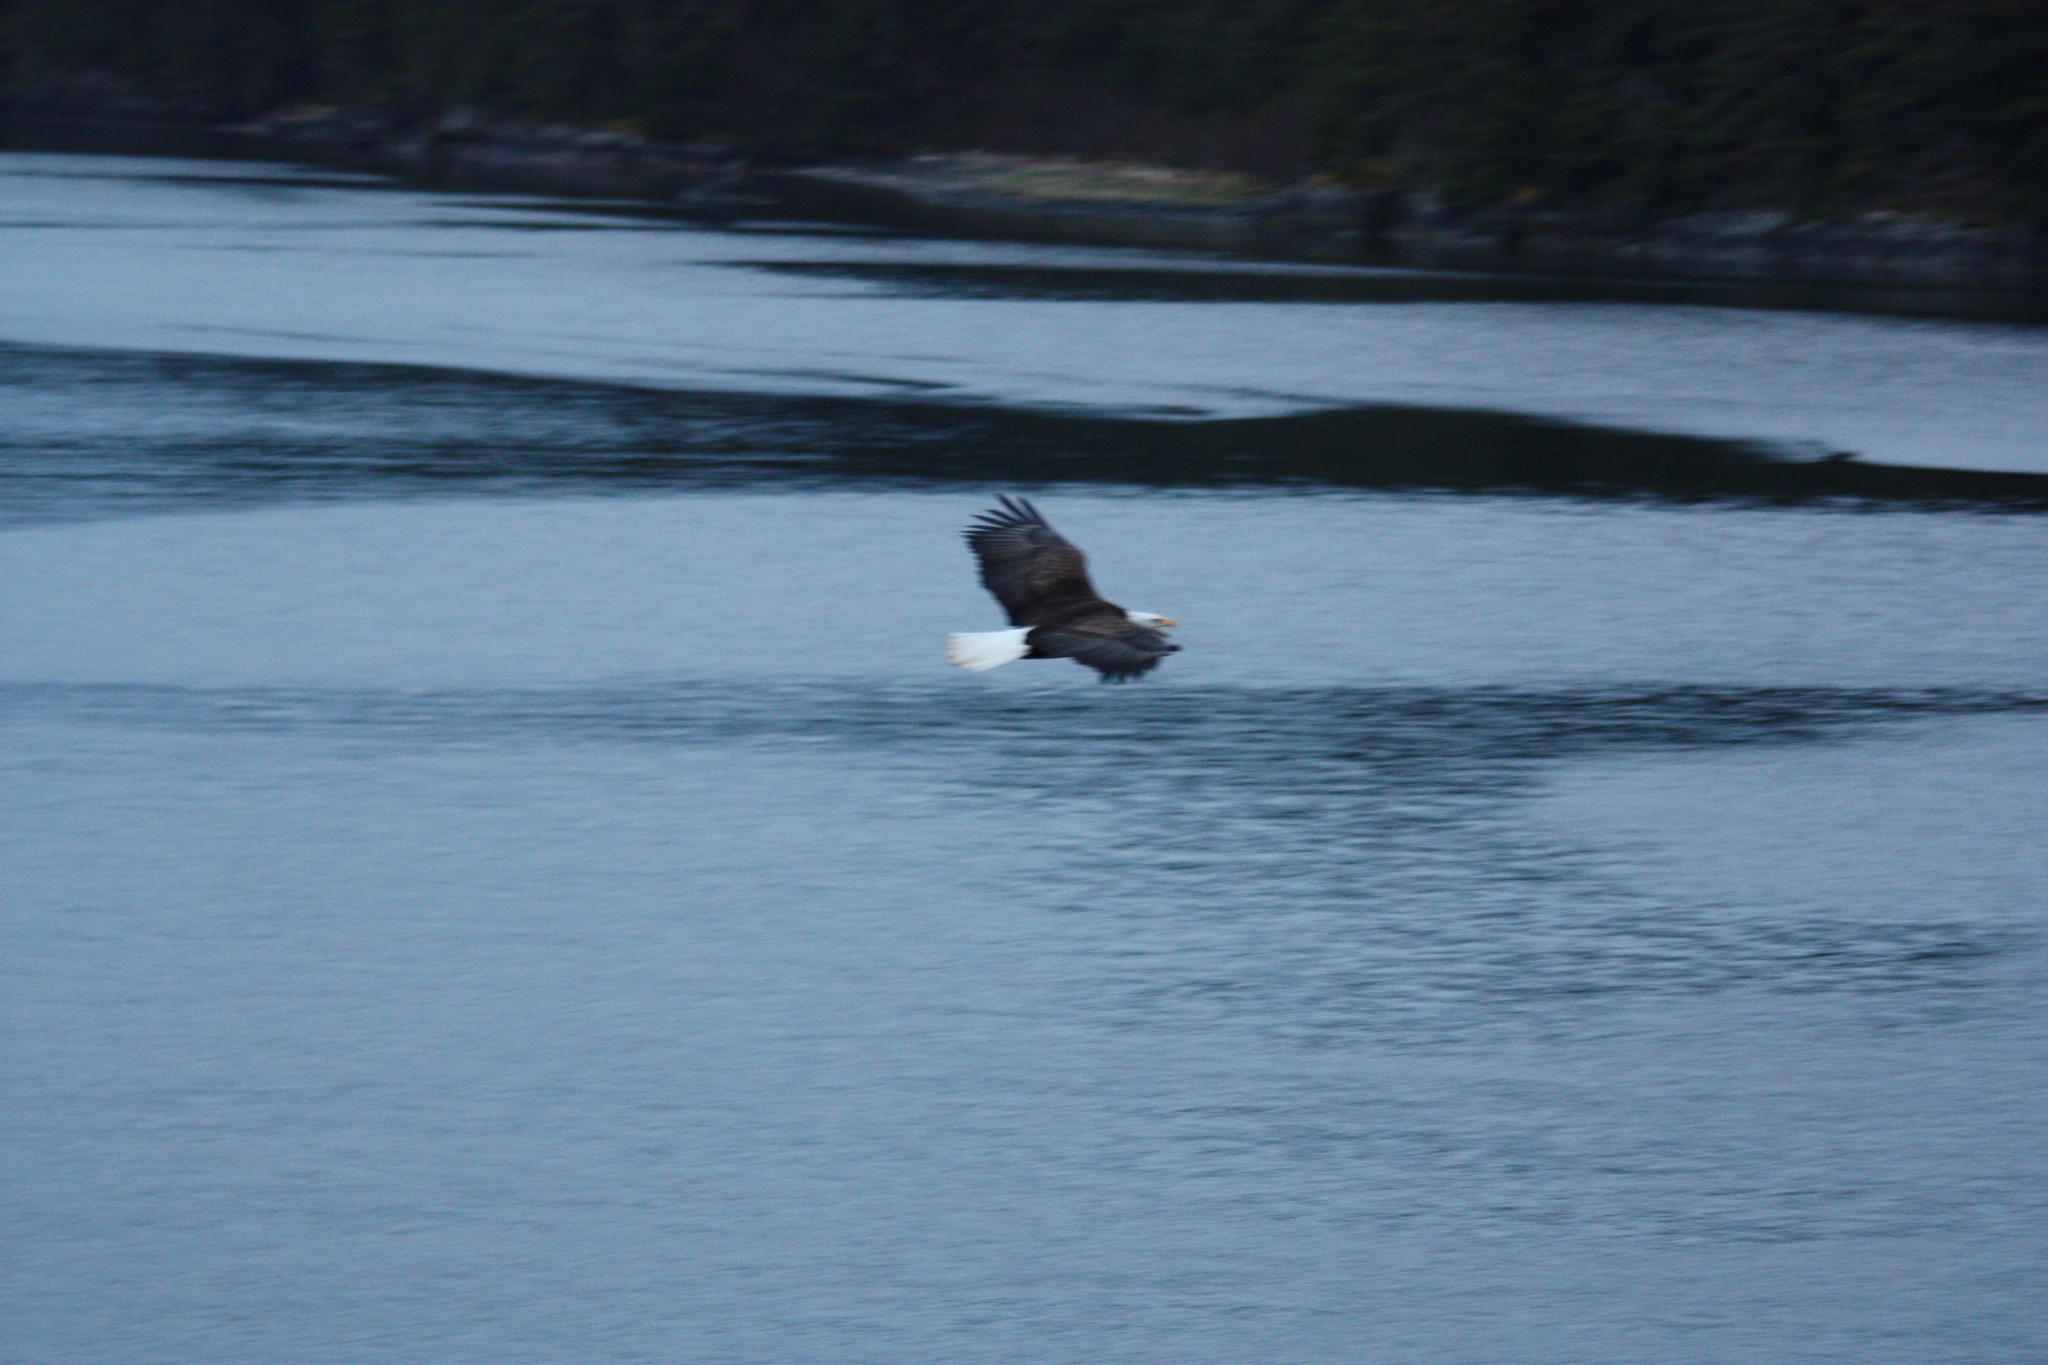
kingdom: Animalia
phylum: Chordata
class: Aves
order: Accipitriformes
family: Accipitridae
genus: Haliaeetus
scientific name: Haliaeetus leucocephalus
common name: Bald eagle
